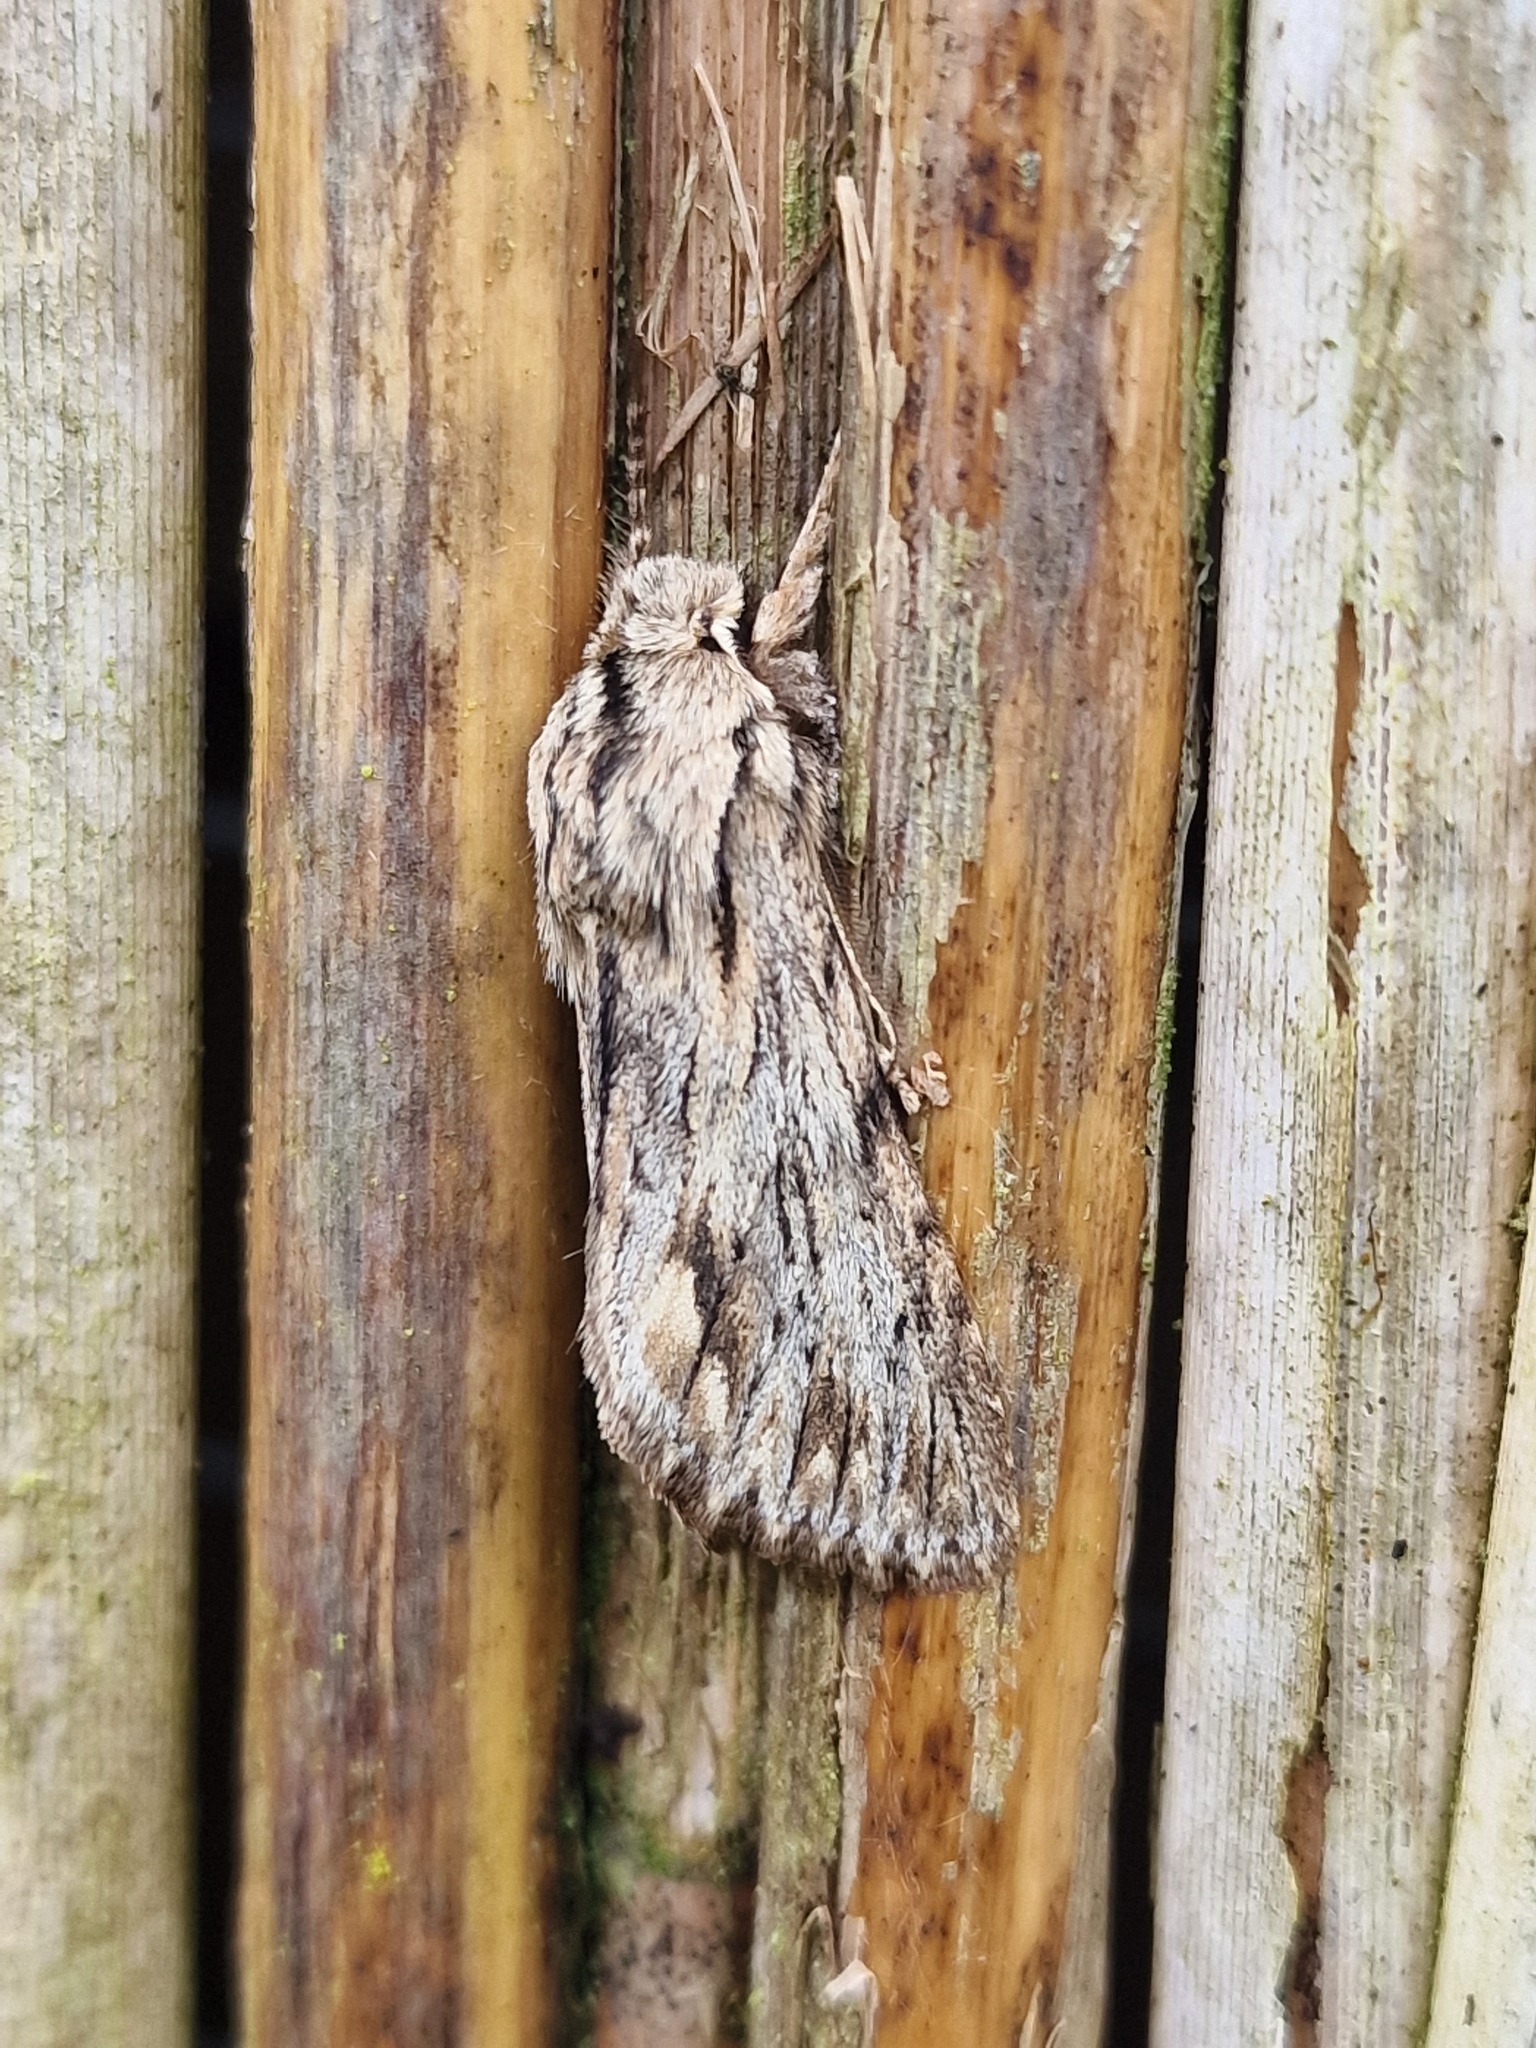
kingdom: Animalia
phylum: Arthropoda
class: Insecta
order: Lepidoptera
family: Noctuidae
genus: Asteroscopus
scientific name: Asteroscopus sphinx
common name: The sprawler
